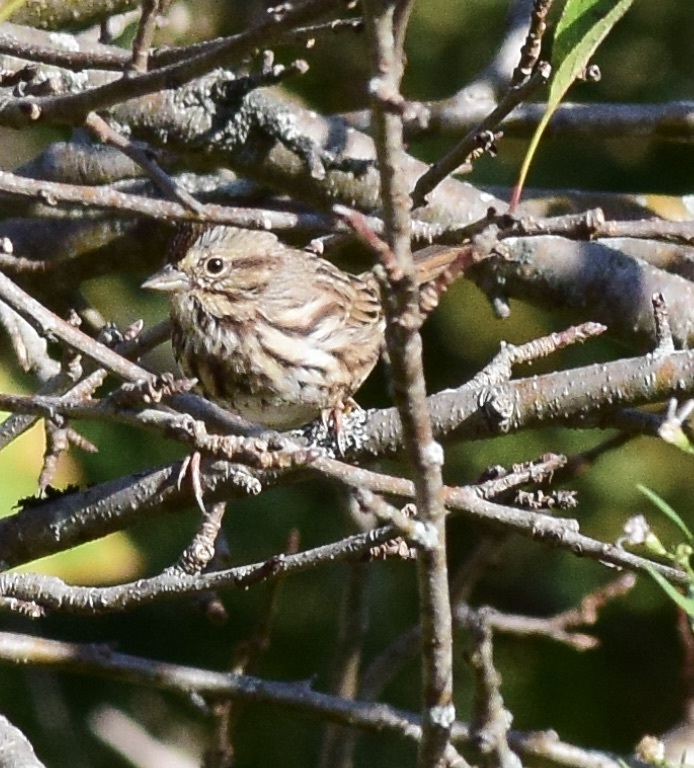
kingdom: Animalia
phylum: Chordata
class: Aves
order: Passeriformes
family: Passerellidae
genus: Melospiza
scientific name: Melospiza melodia
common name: Song sparrow
